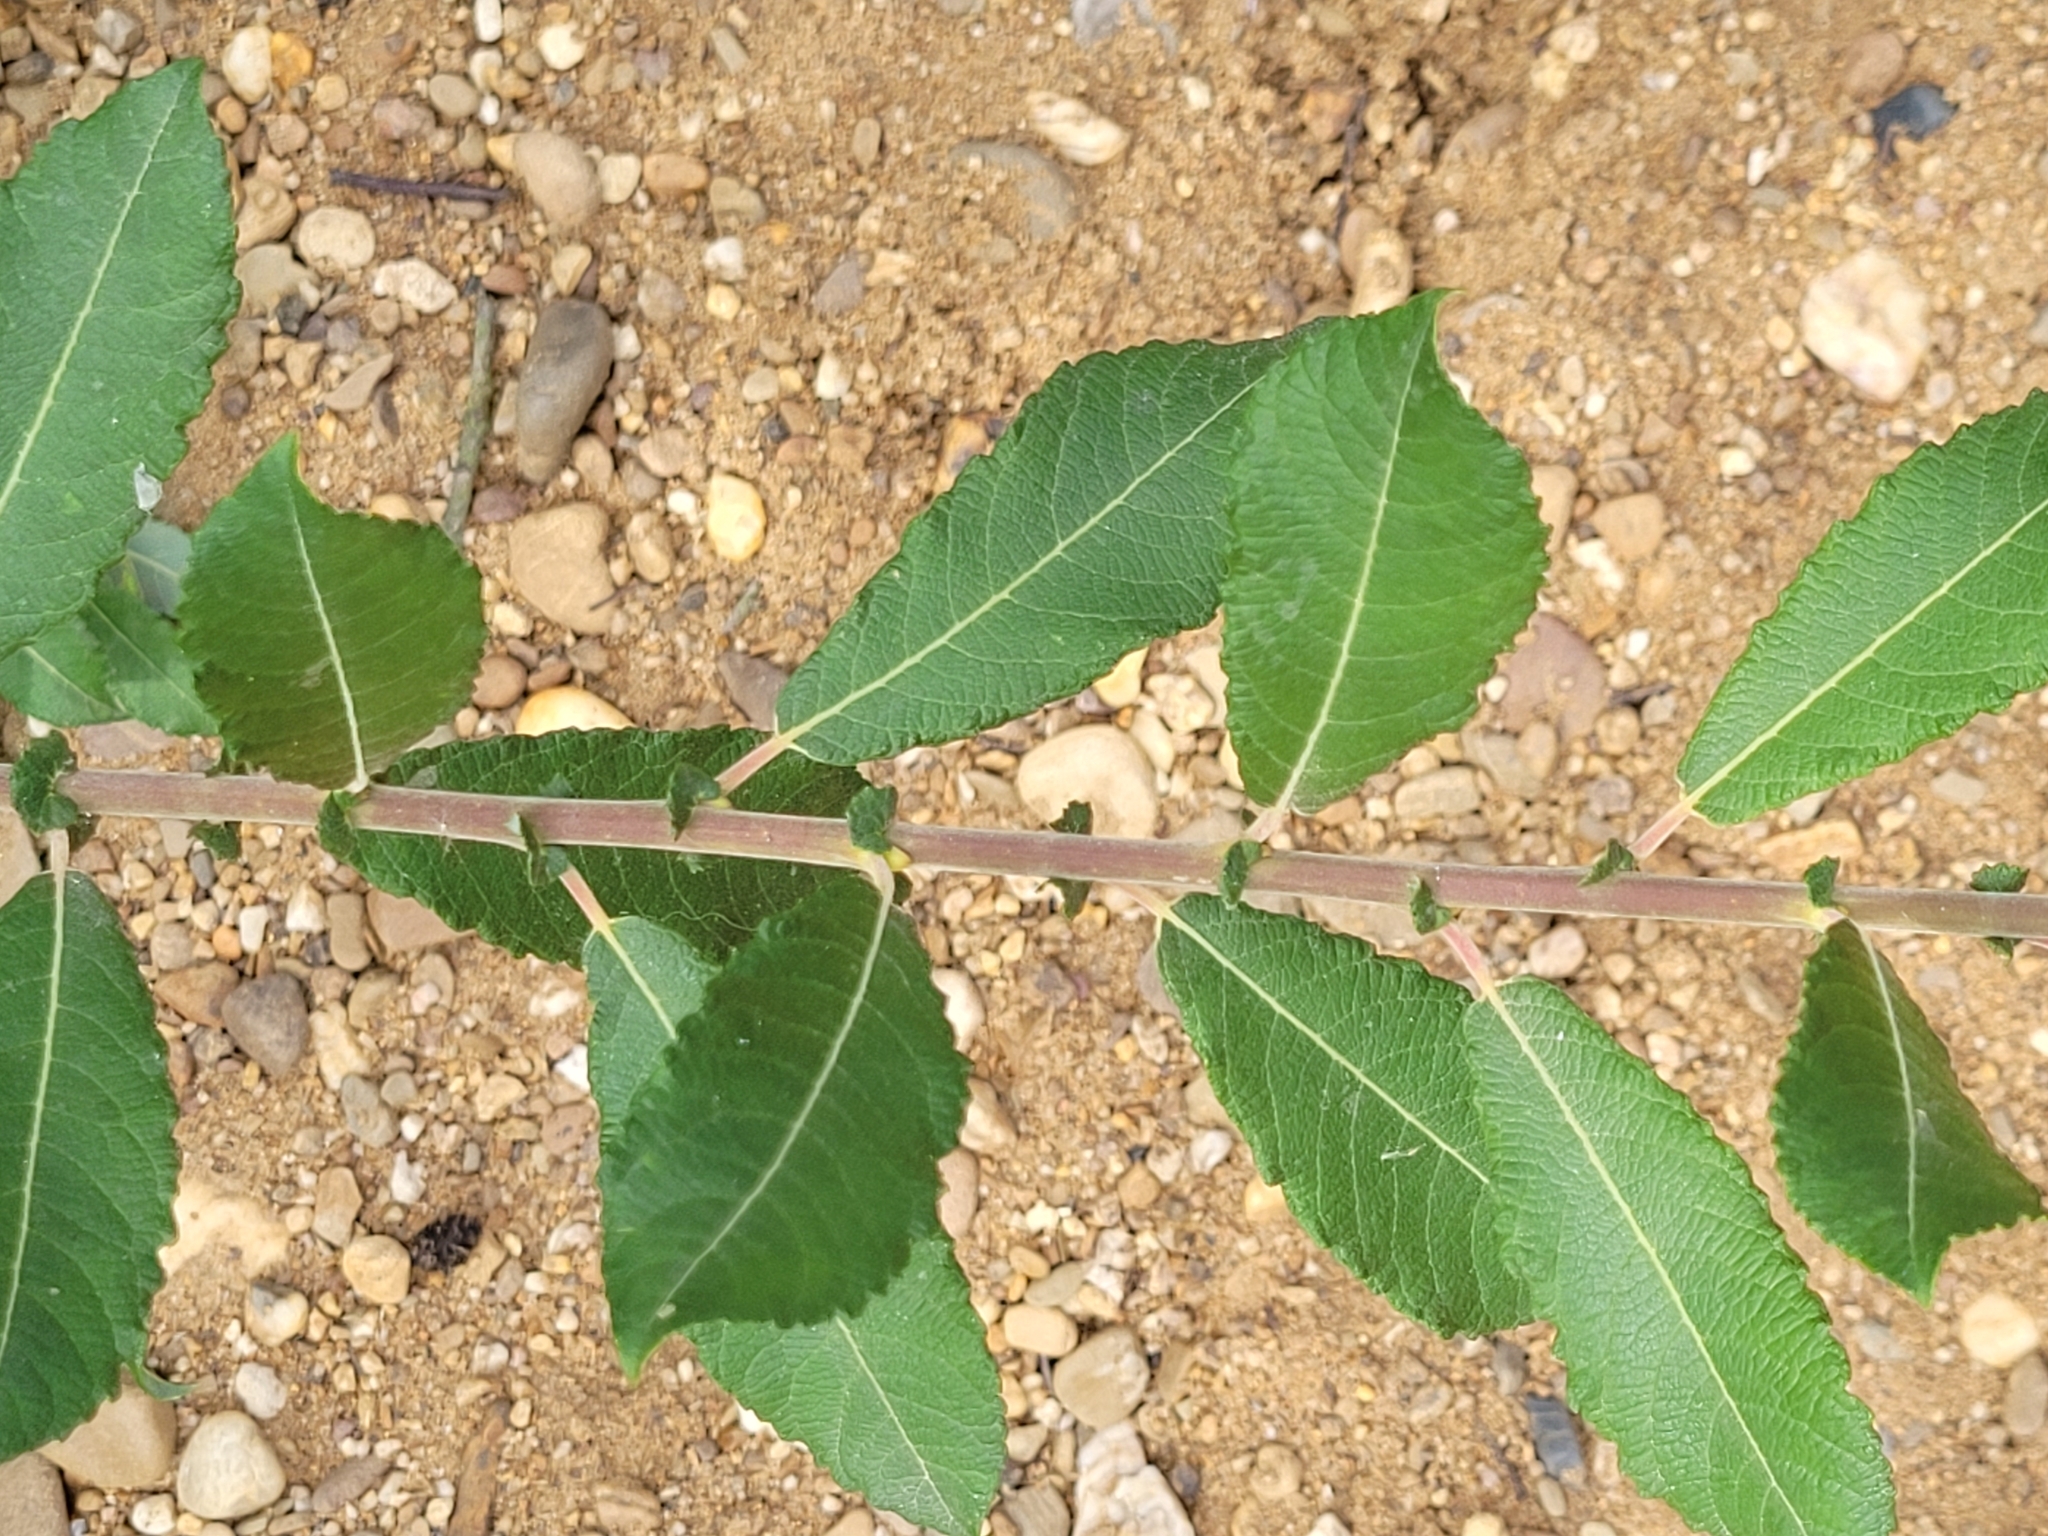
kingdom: Plantae
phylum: Tracheophyta
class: Magnoliopsida
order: Malpighiales
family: Salicaceae
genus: Salix
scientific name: Salix cinerea
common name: Common sallow
